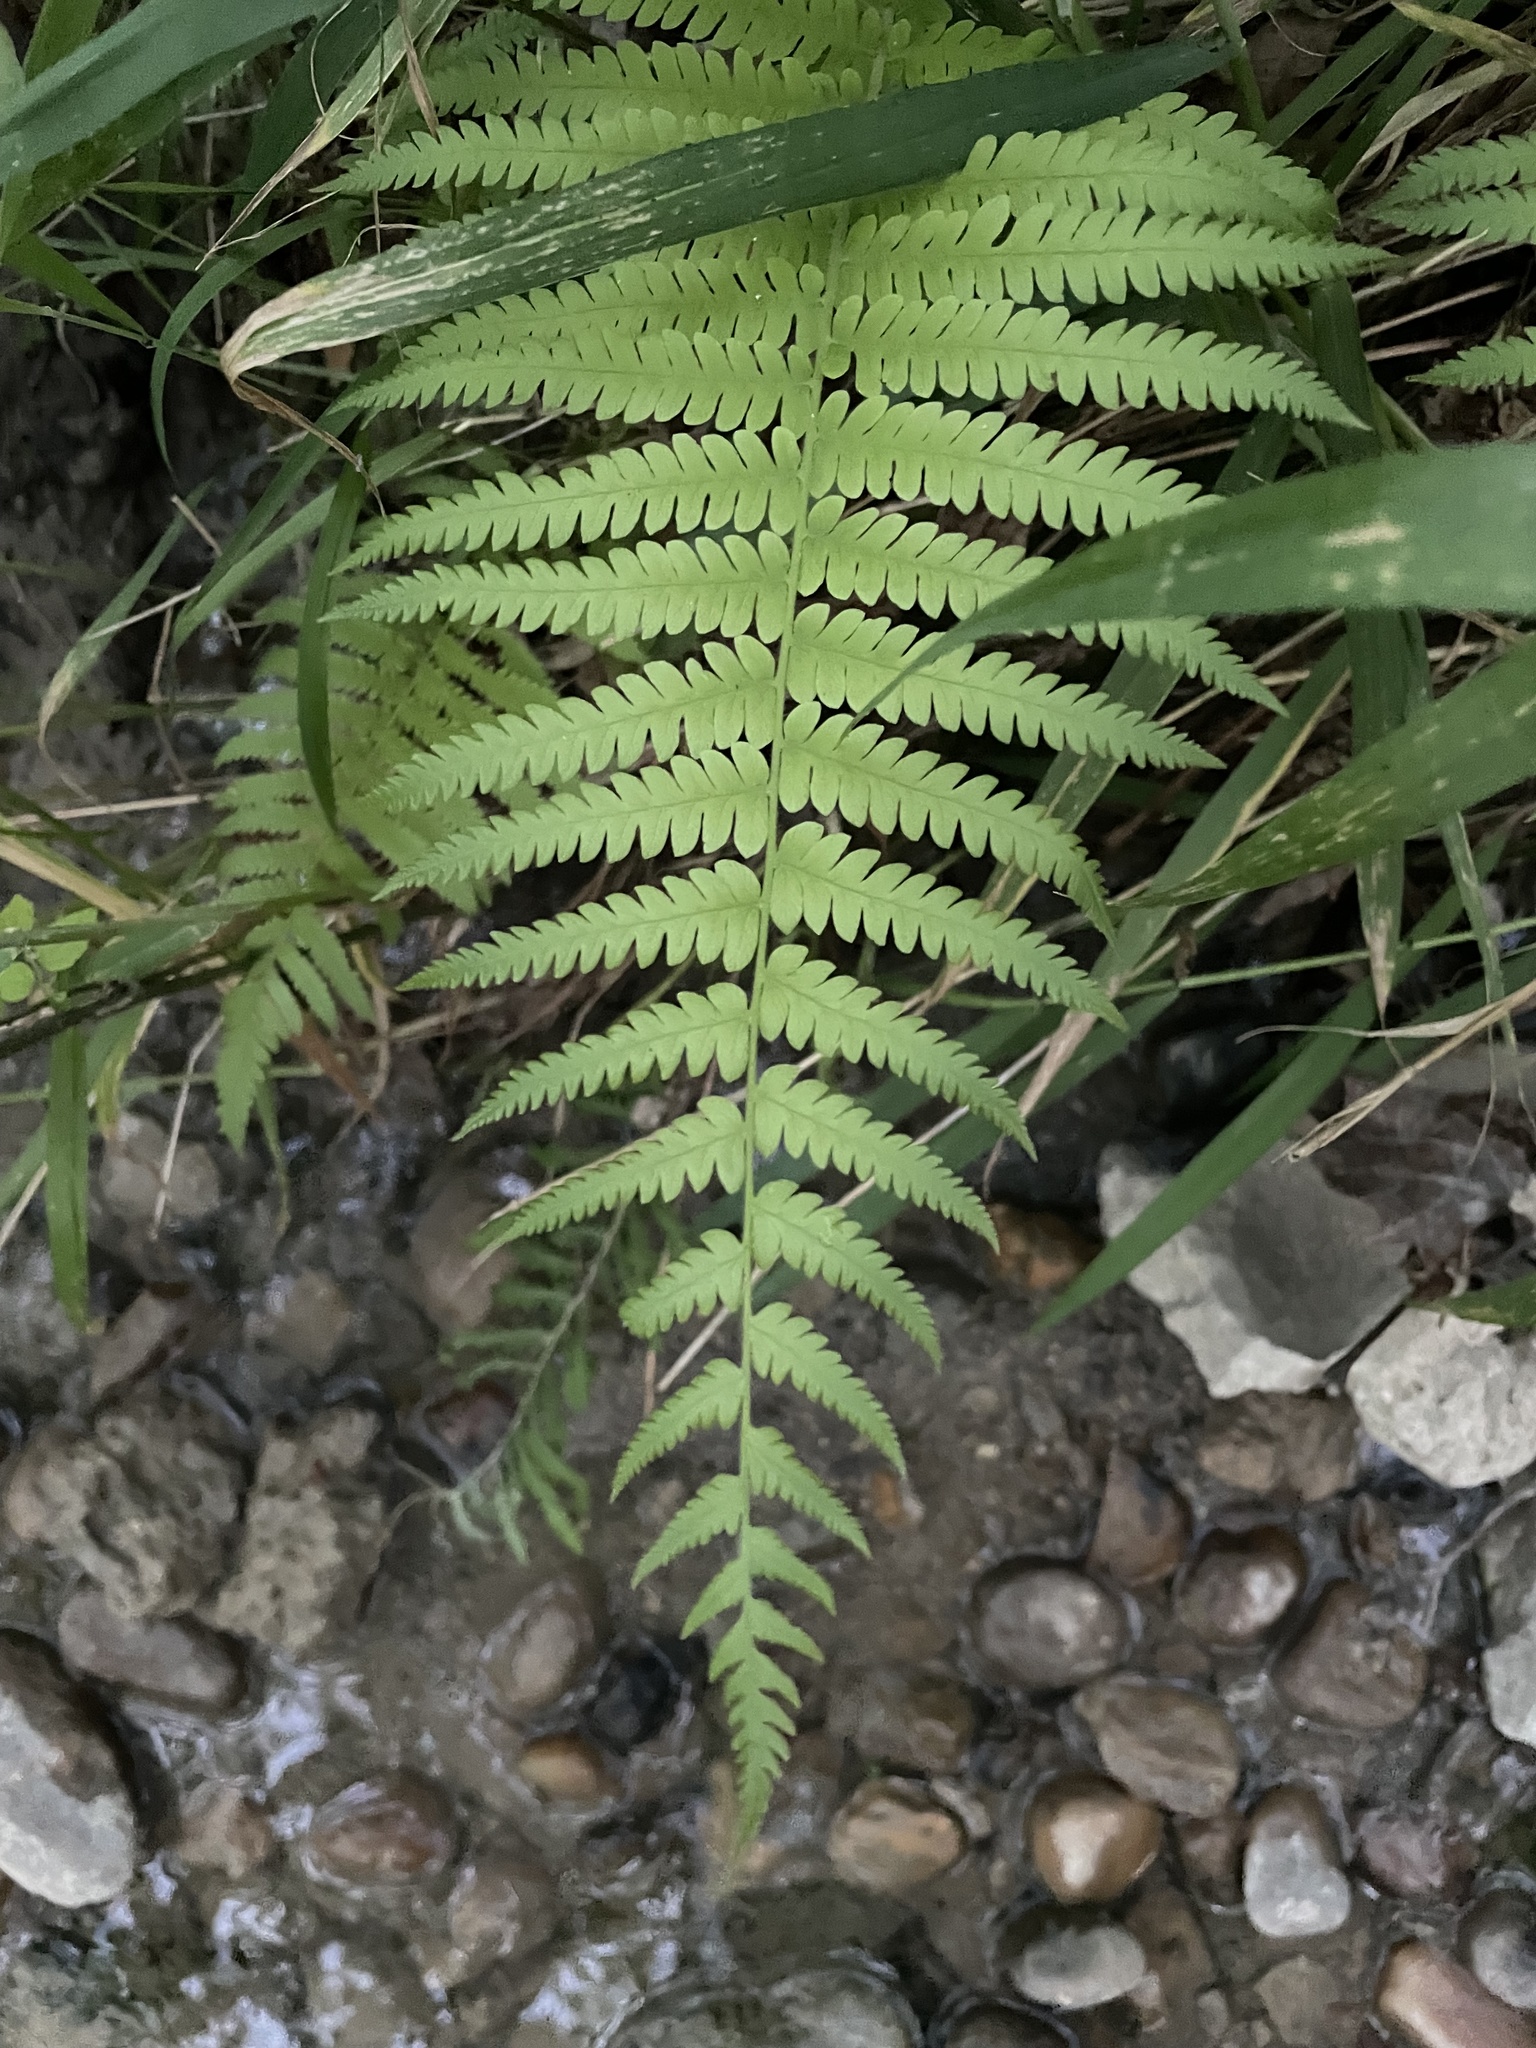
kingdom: Plantae
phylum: Tracheophyta
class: Polypodiopsida
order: Polypodiales
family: Thelypteridaceae
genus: Pelazoneuron
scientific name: Pelazoneuron kunthii
